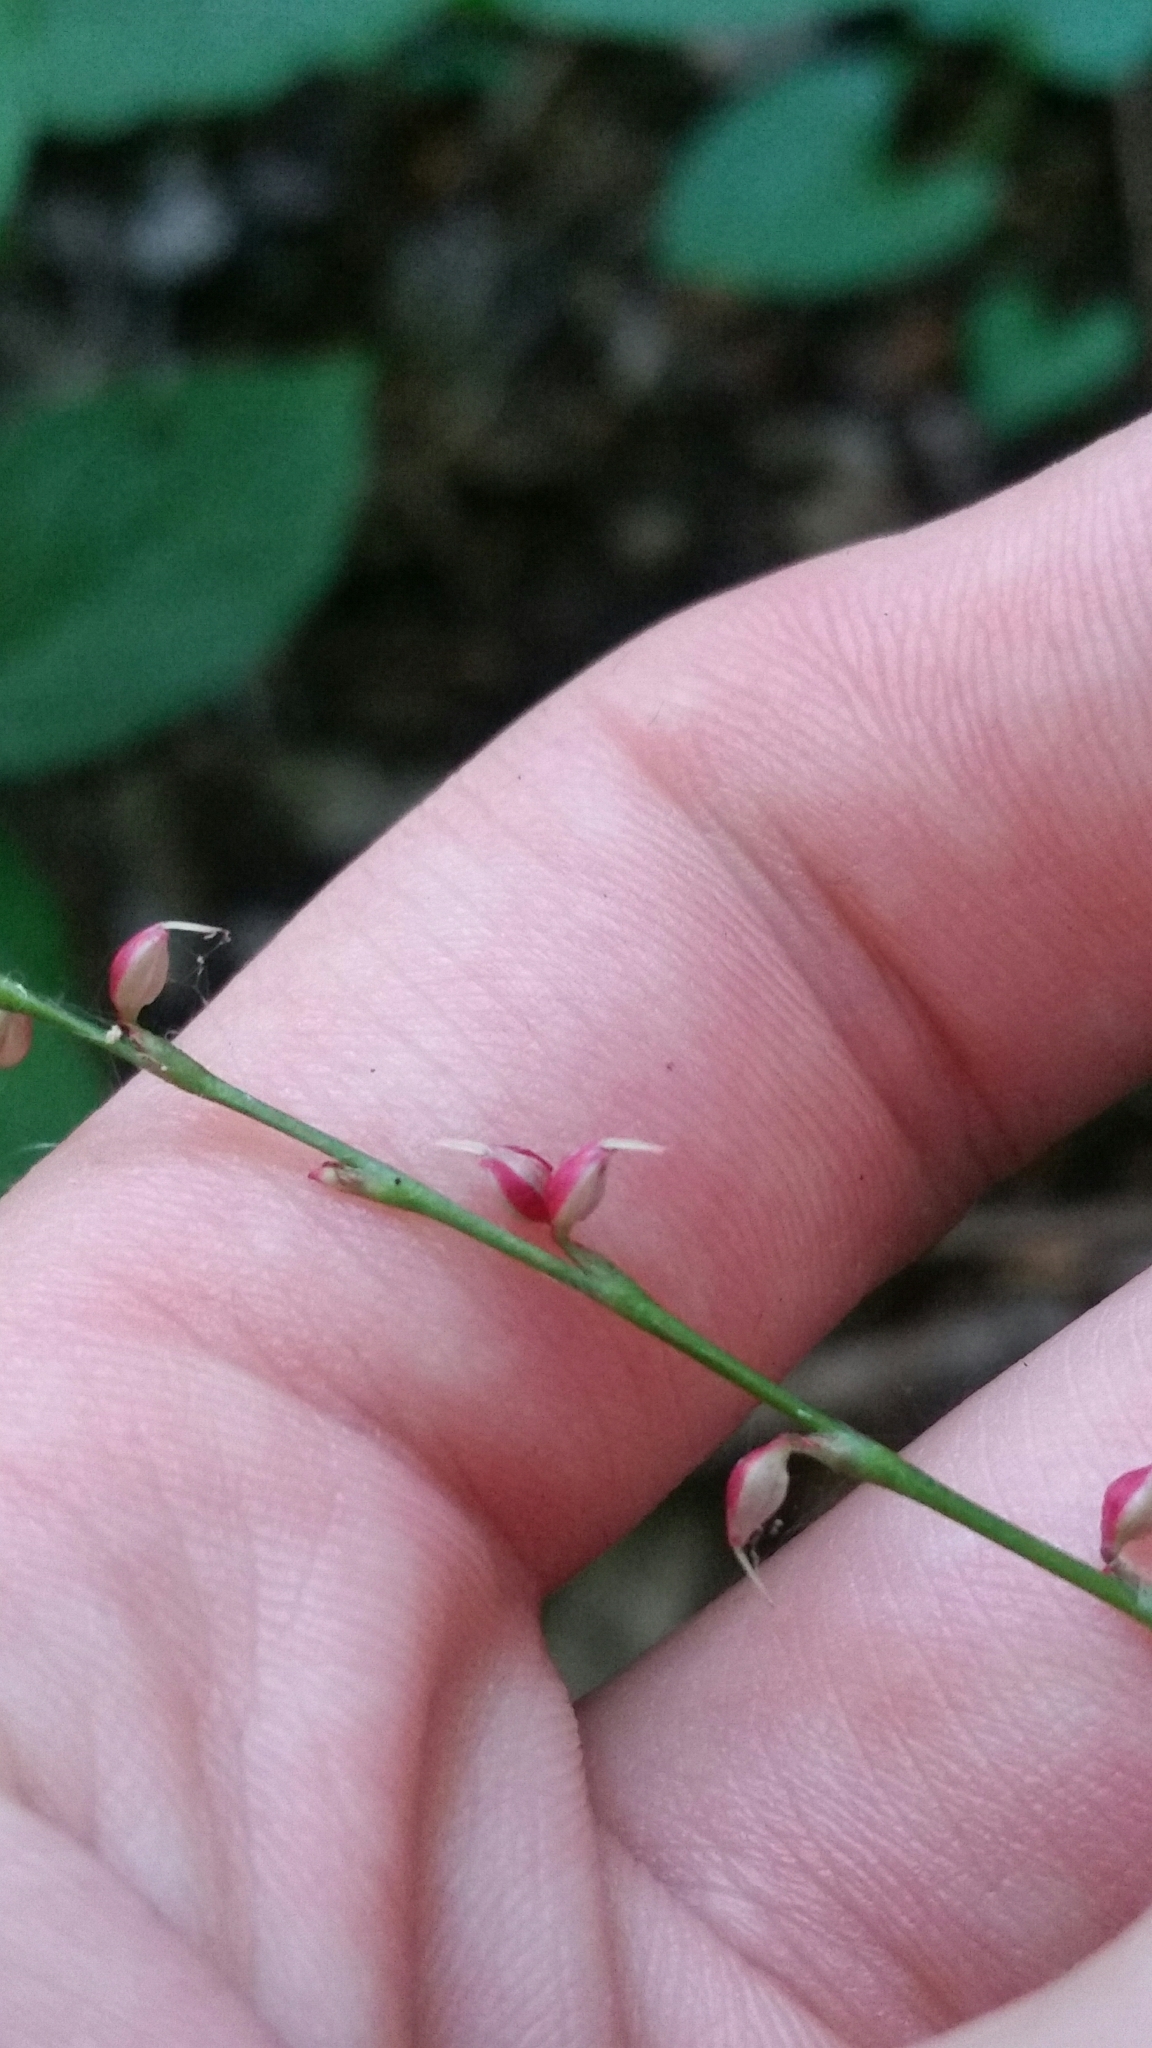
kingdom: Plantae
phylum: Tracheophyta
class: Magnoliopsida
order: Caryophyllales
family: Polygonaceae
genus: Persicaria
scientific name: Persicaria filiformis
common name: Asian jumpseed
